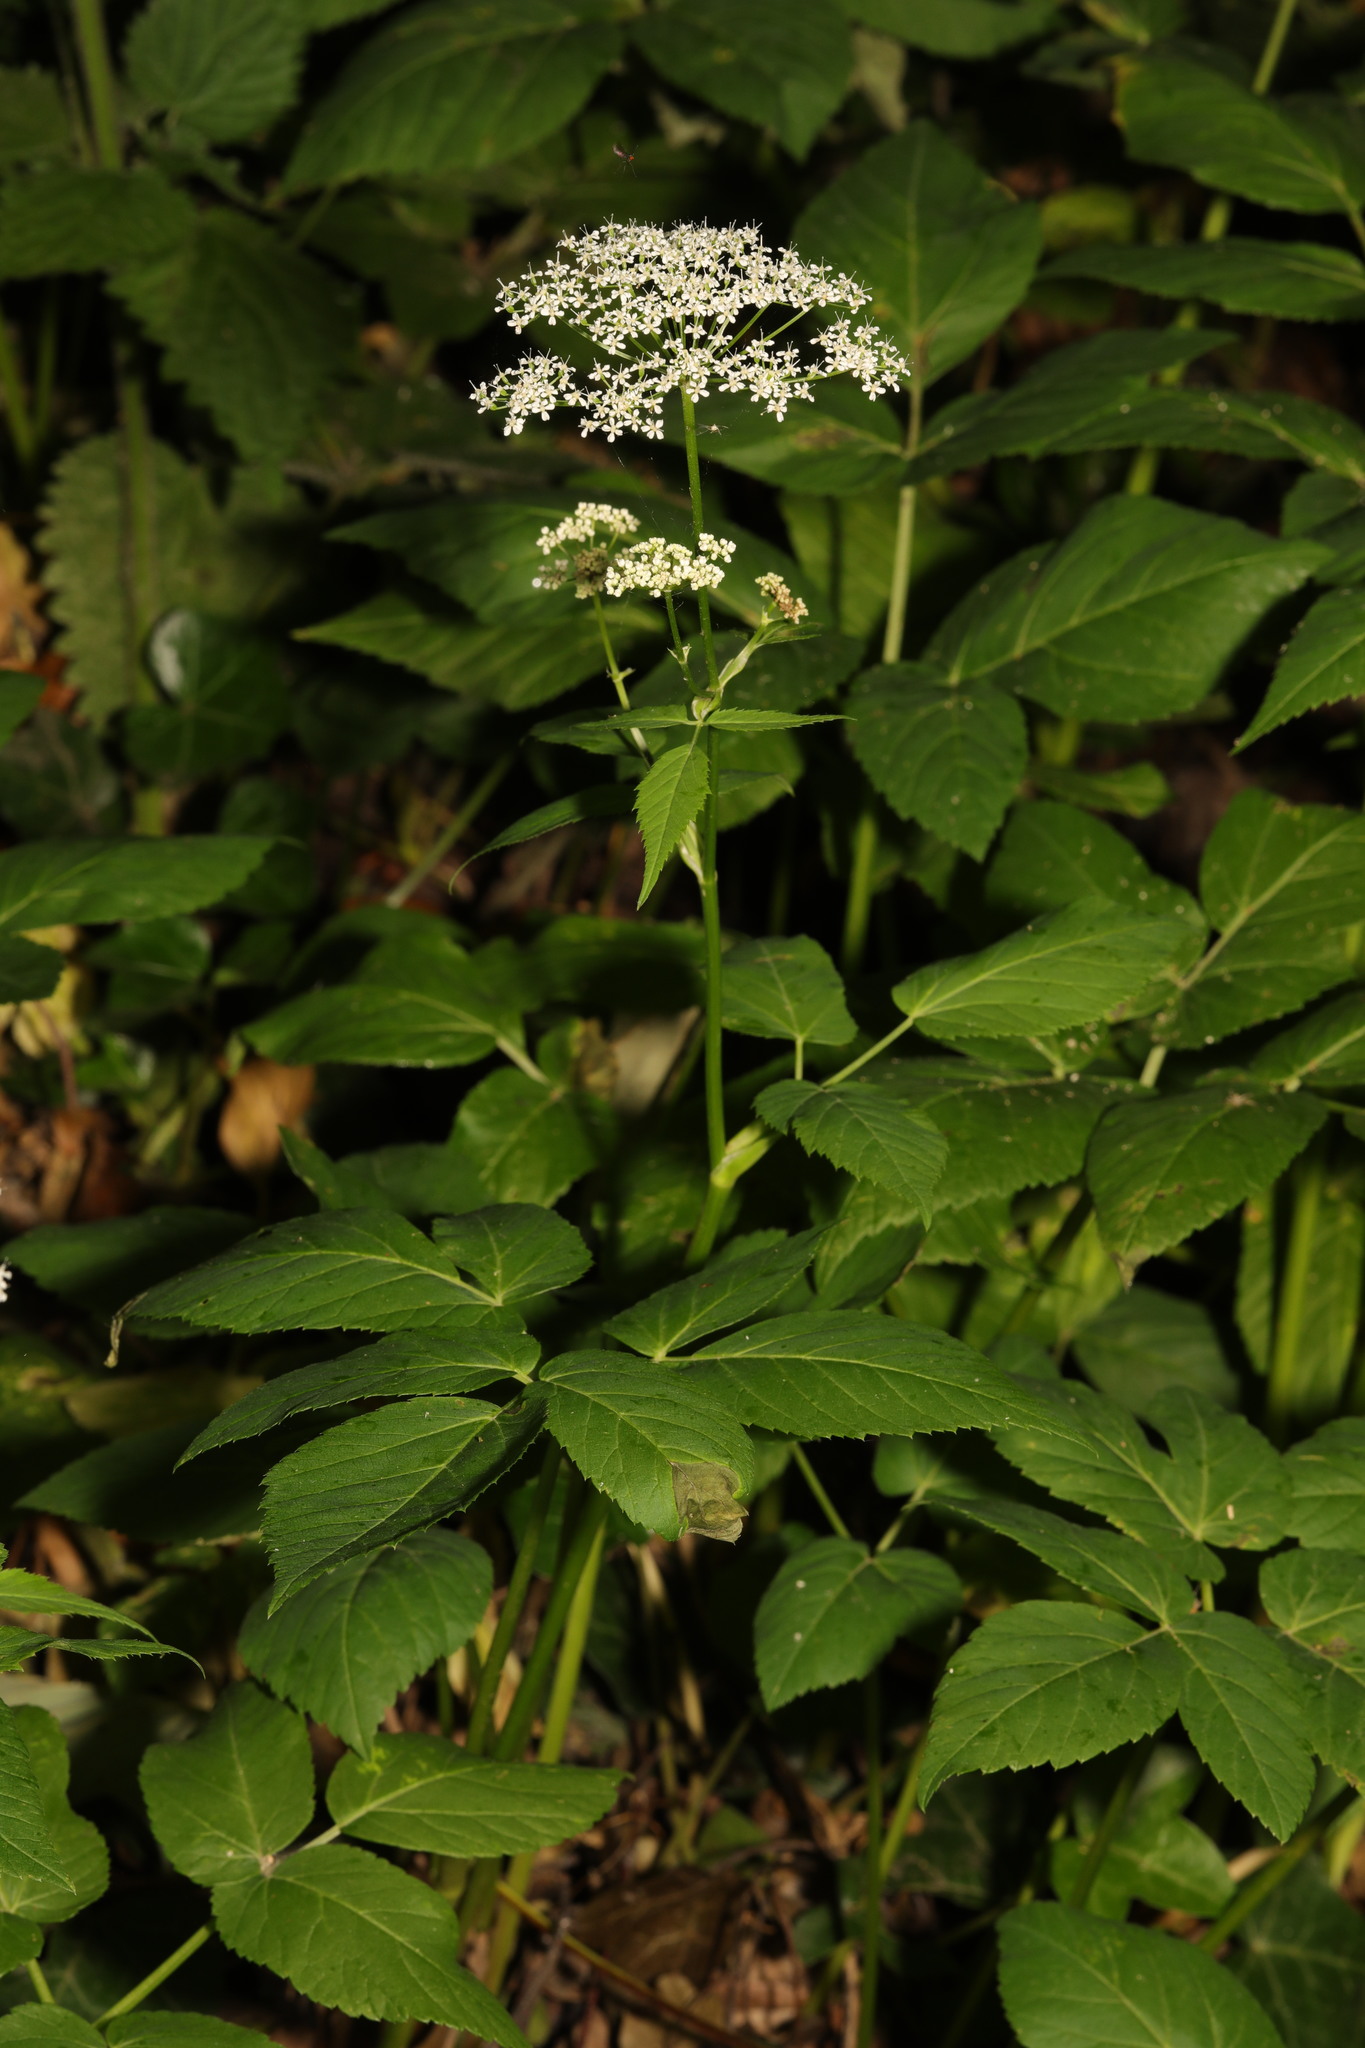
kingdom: Plantae
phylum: Tracheophyta
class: Magnoliopsida
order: Apiales
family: Apiaceae
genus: Aegopodium
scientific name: Aegopodium podagraria
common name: Ground-elder
